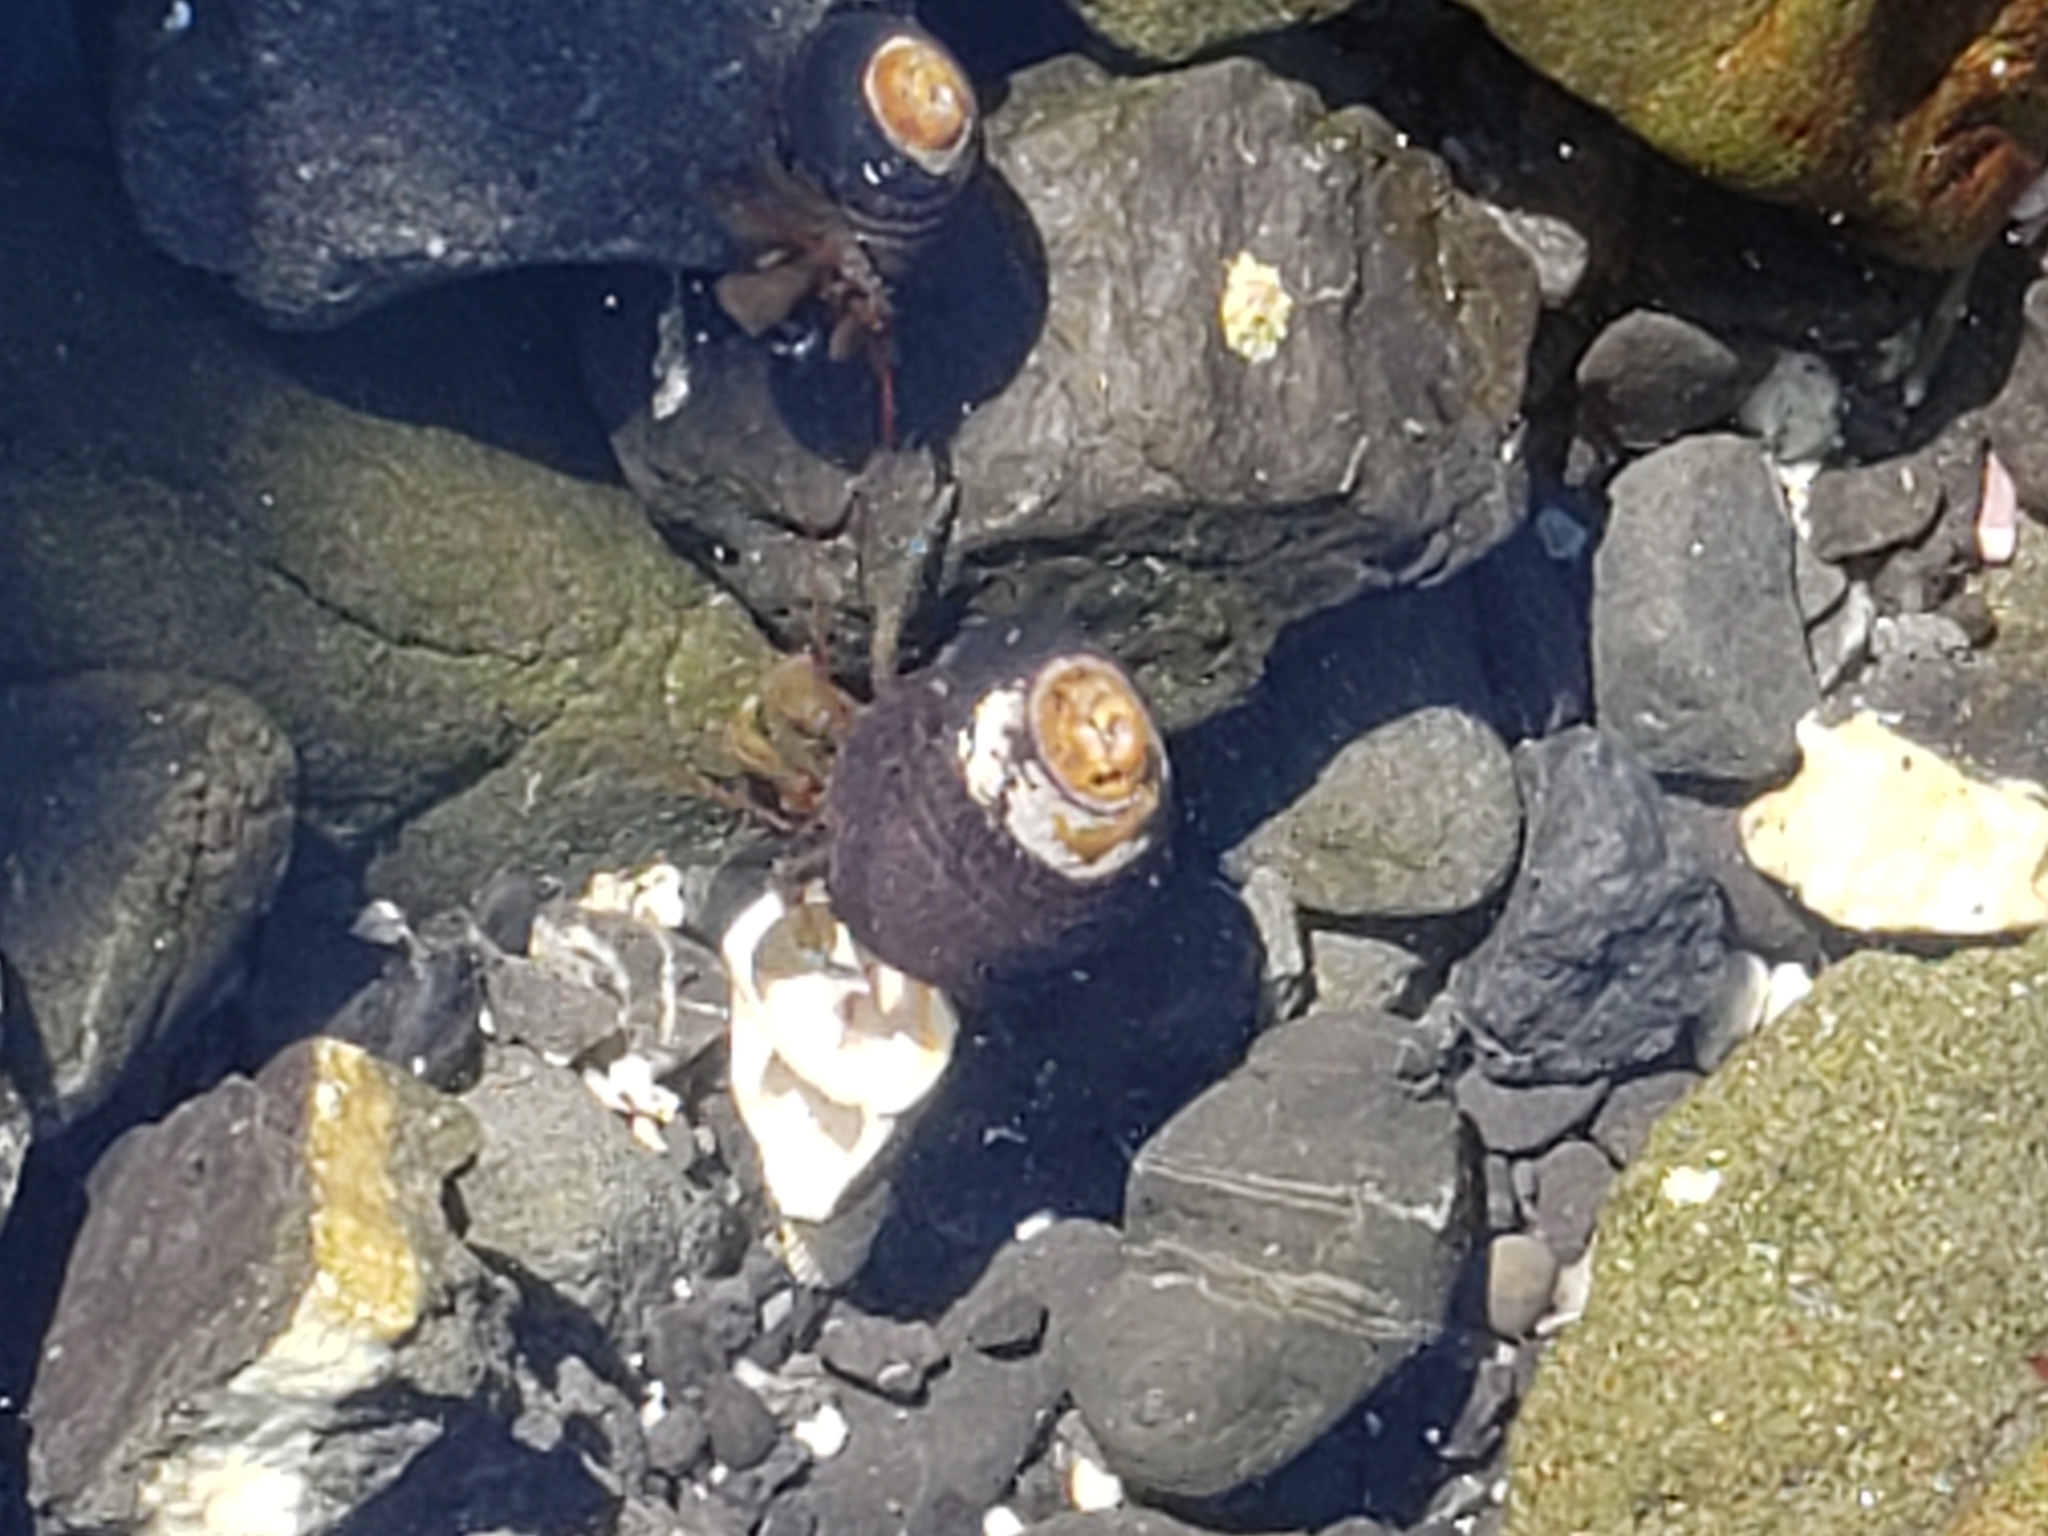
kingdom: Animalia
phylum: Mollusca
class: Gastropoda
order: Trochida
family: Tegulidae
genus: Tegula
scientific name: Tegula funebralis
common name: Black tegula
